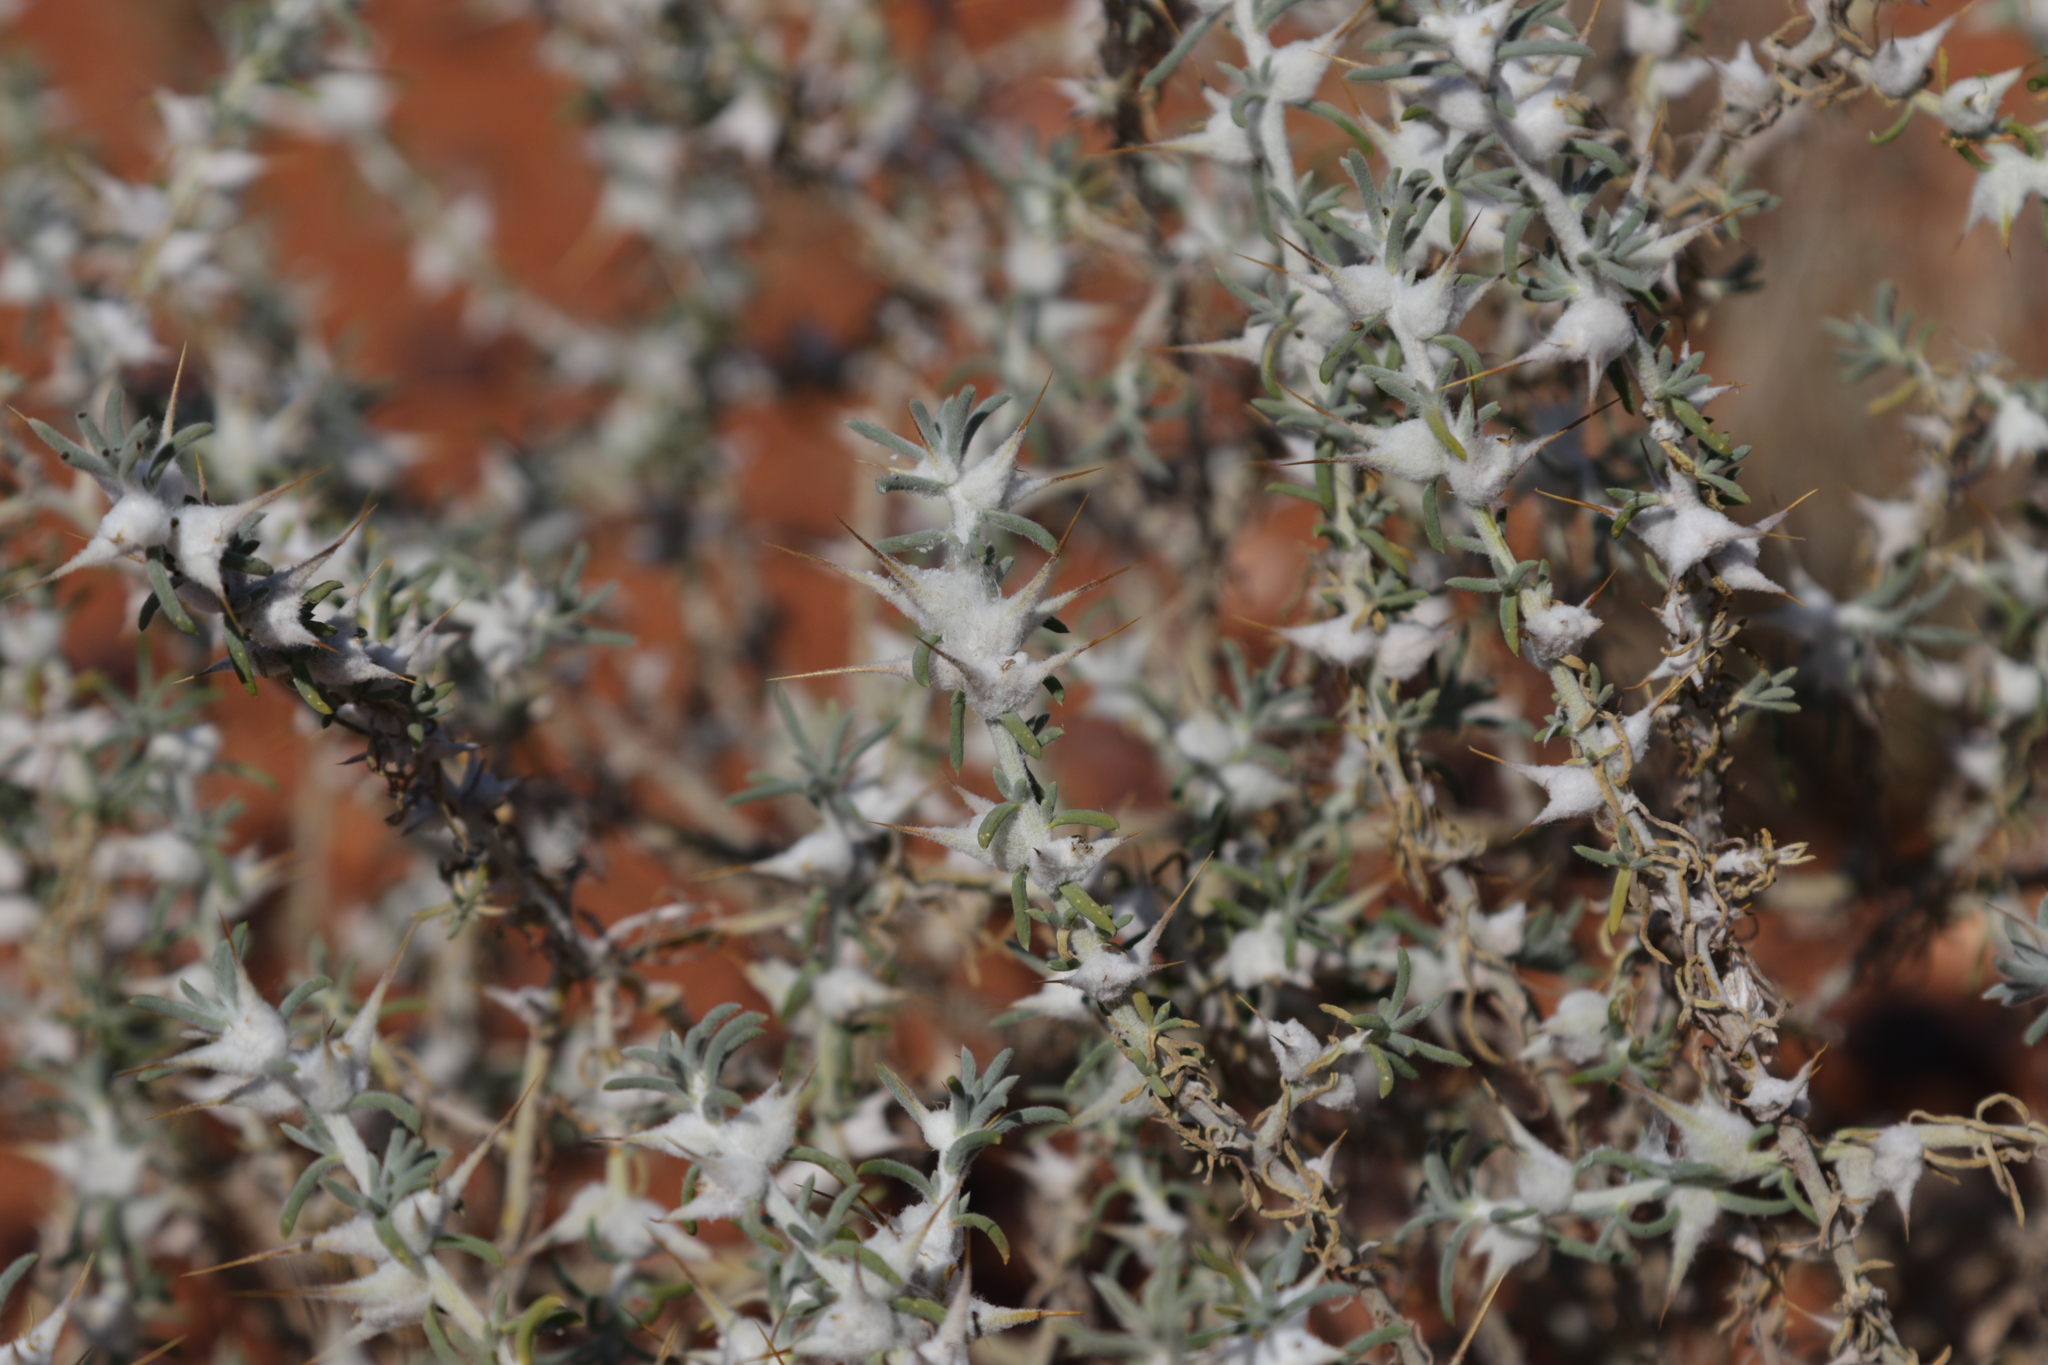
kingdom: Plantae
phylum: Tracheophyta
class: Magnoliopsida
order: Caryophyllales
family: Amaranthaceae
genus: Sclerolaena
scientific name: Sclerolaena bicornis
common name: Goatheadbur
